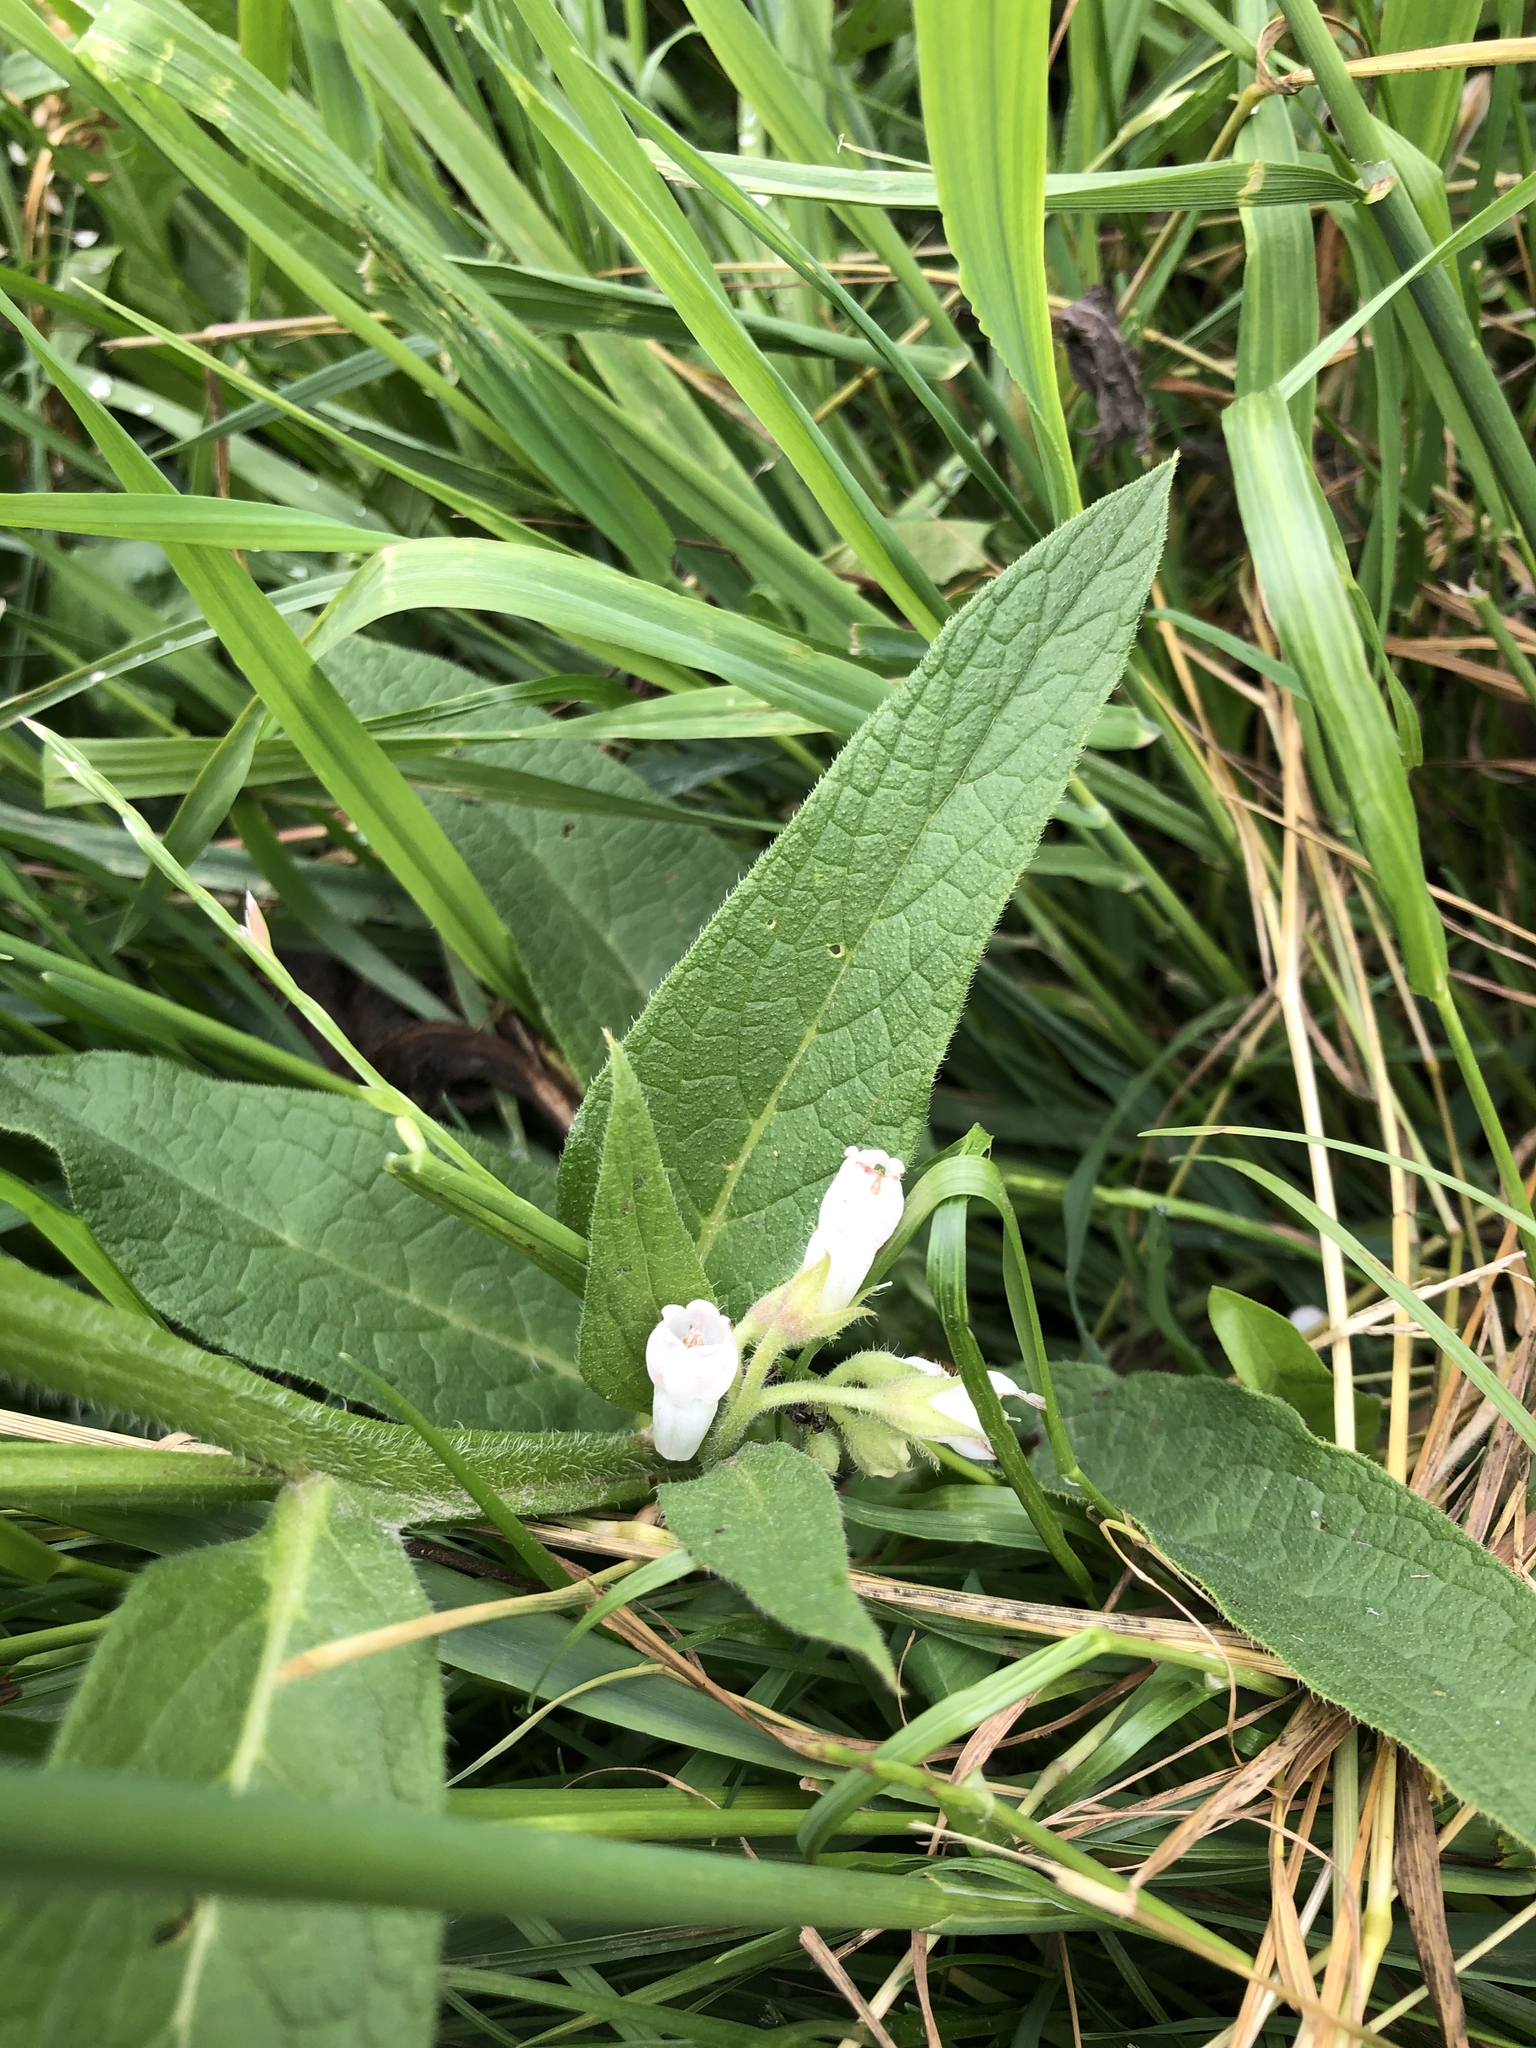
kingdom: Plantae
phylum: Tracheophyta
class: Magnoliopsida
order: Boraginales
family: Boraginaceae
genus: Symphytum
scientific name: Symphytum officinale
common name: Common comfrey
